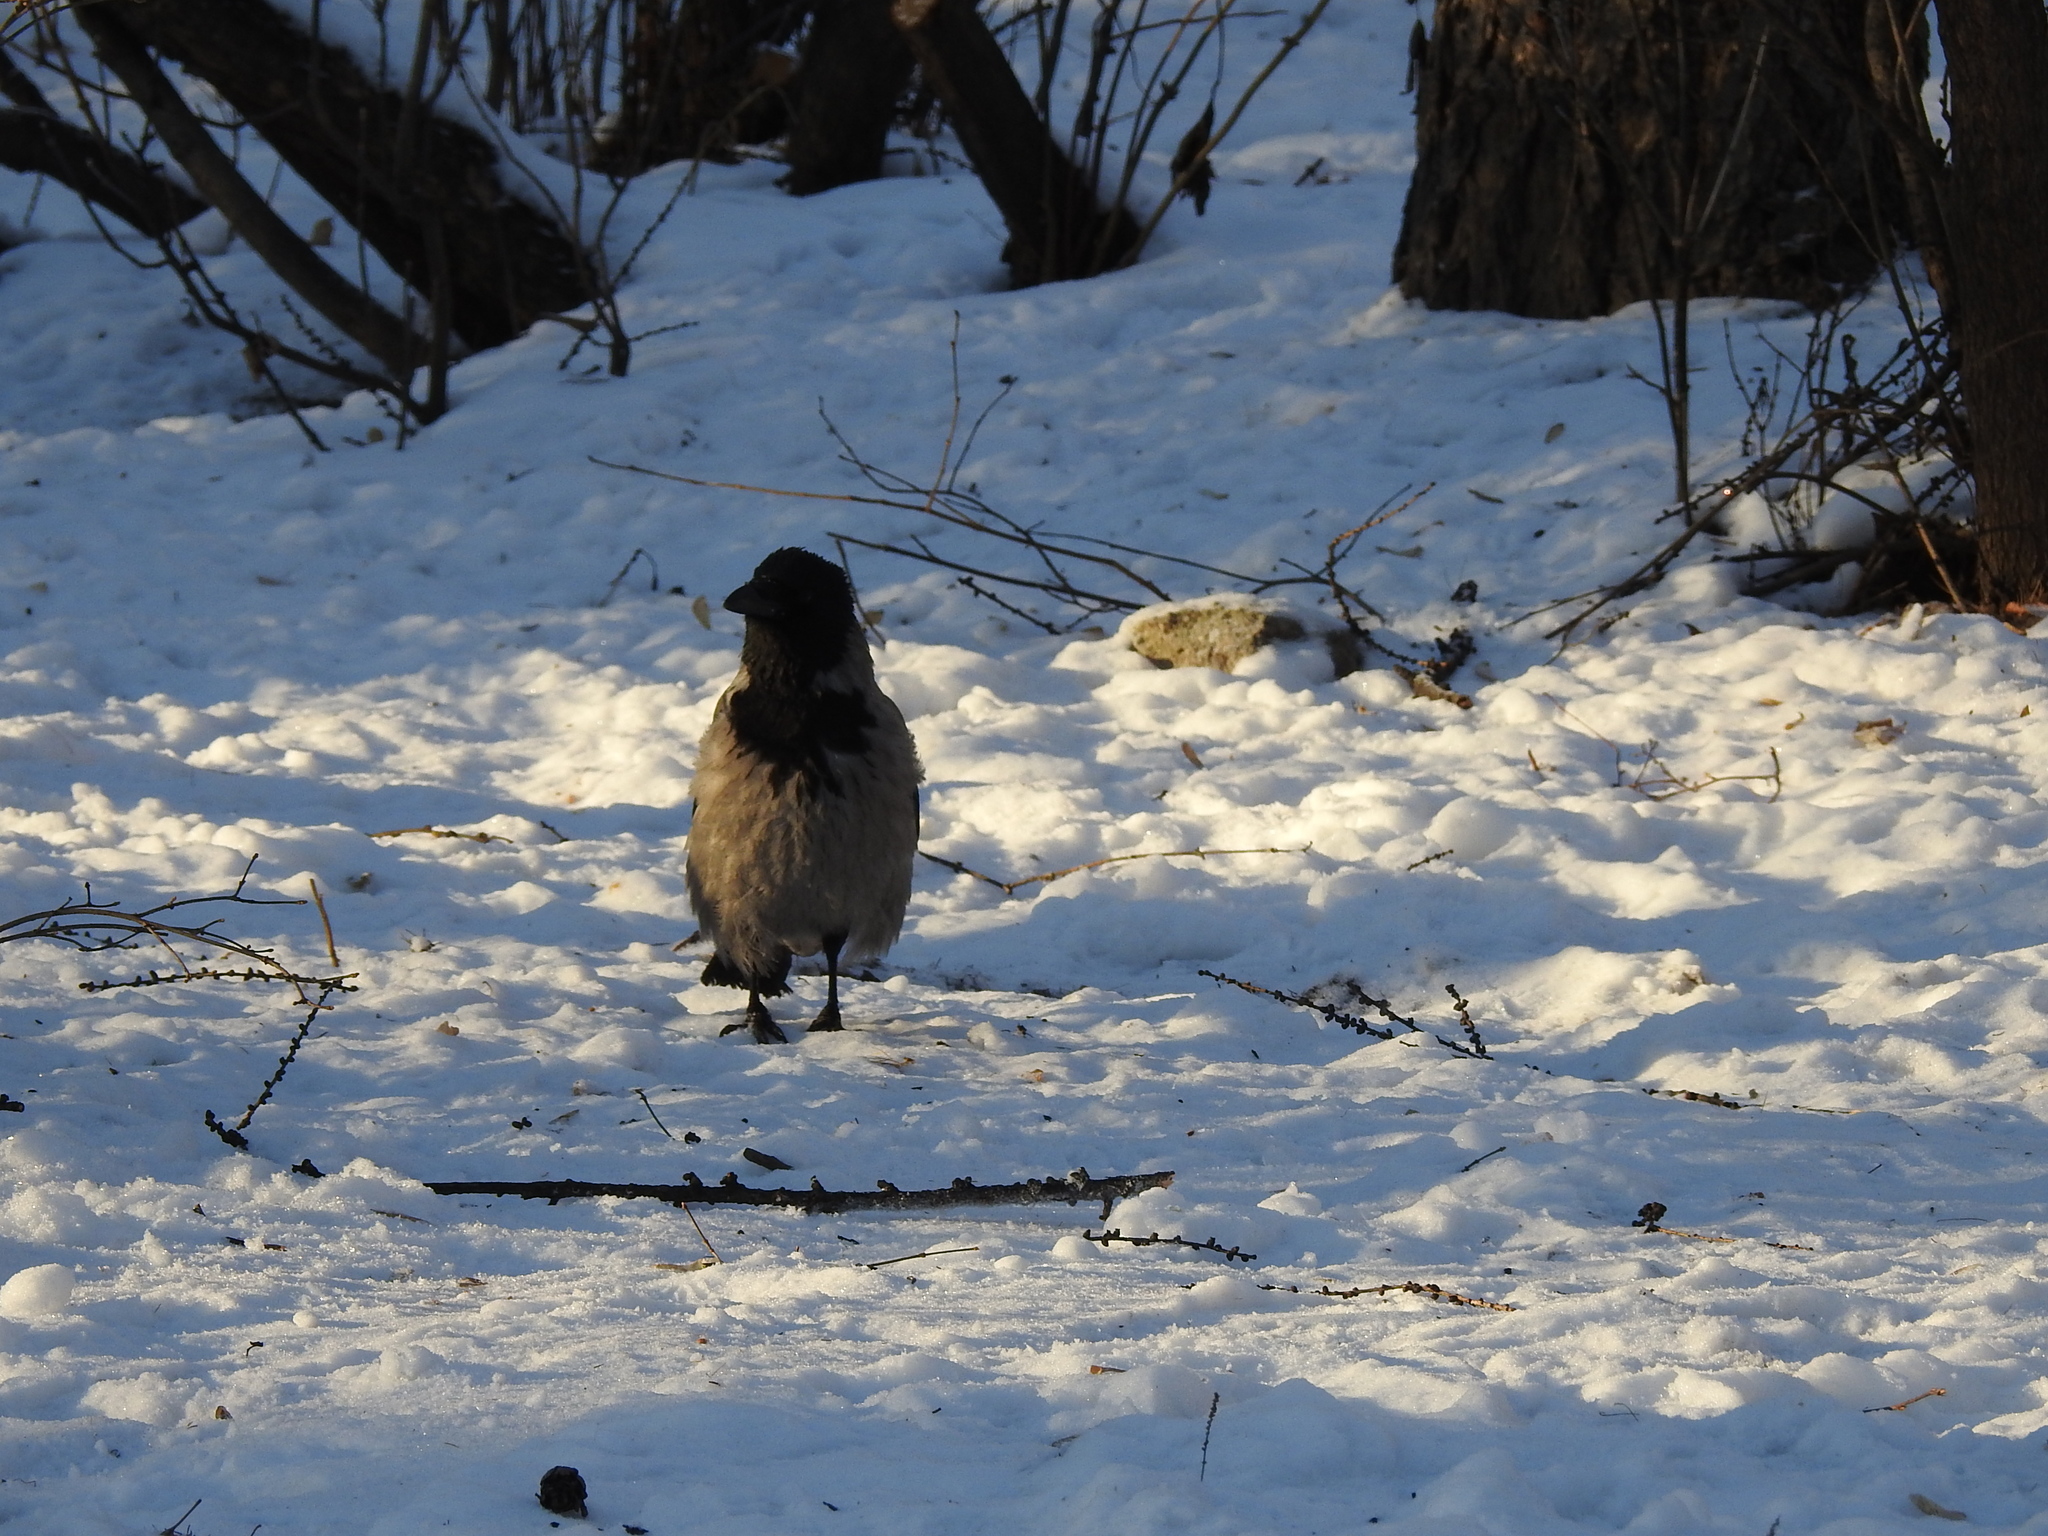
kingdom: Animalia
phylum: Chordata
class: Aves
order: Passeriformes
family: Corvidae
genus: Corvus
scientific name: Corvus cornix
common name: Hooded crow
